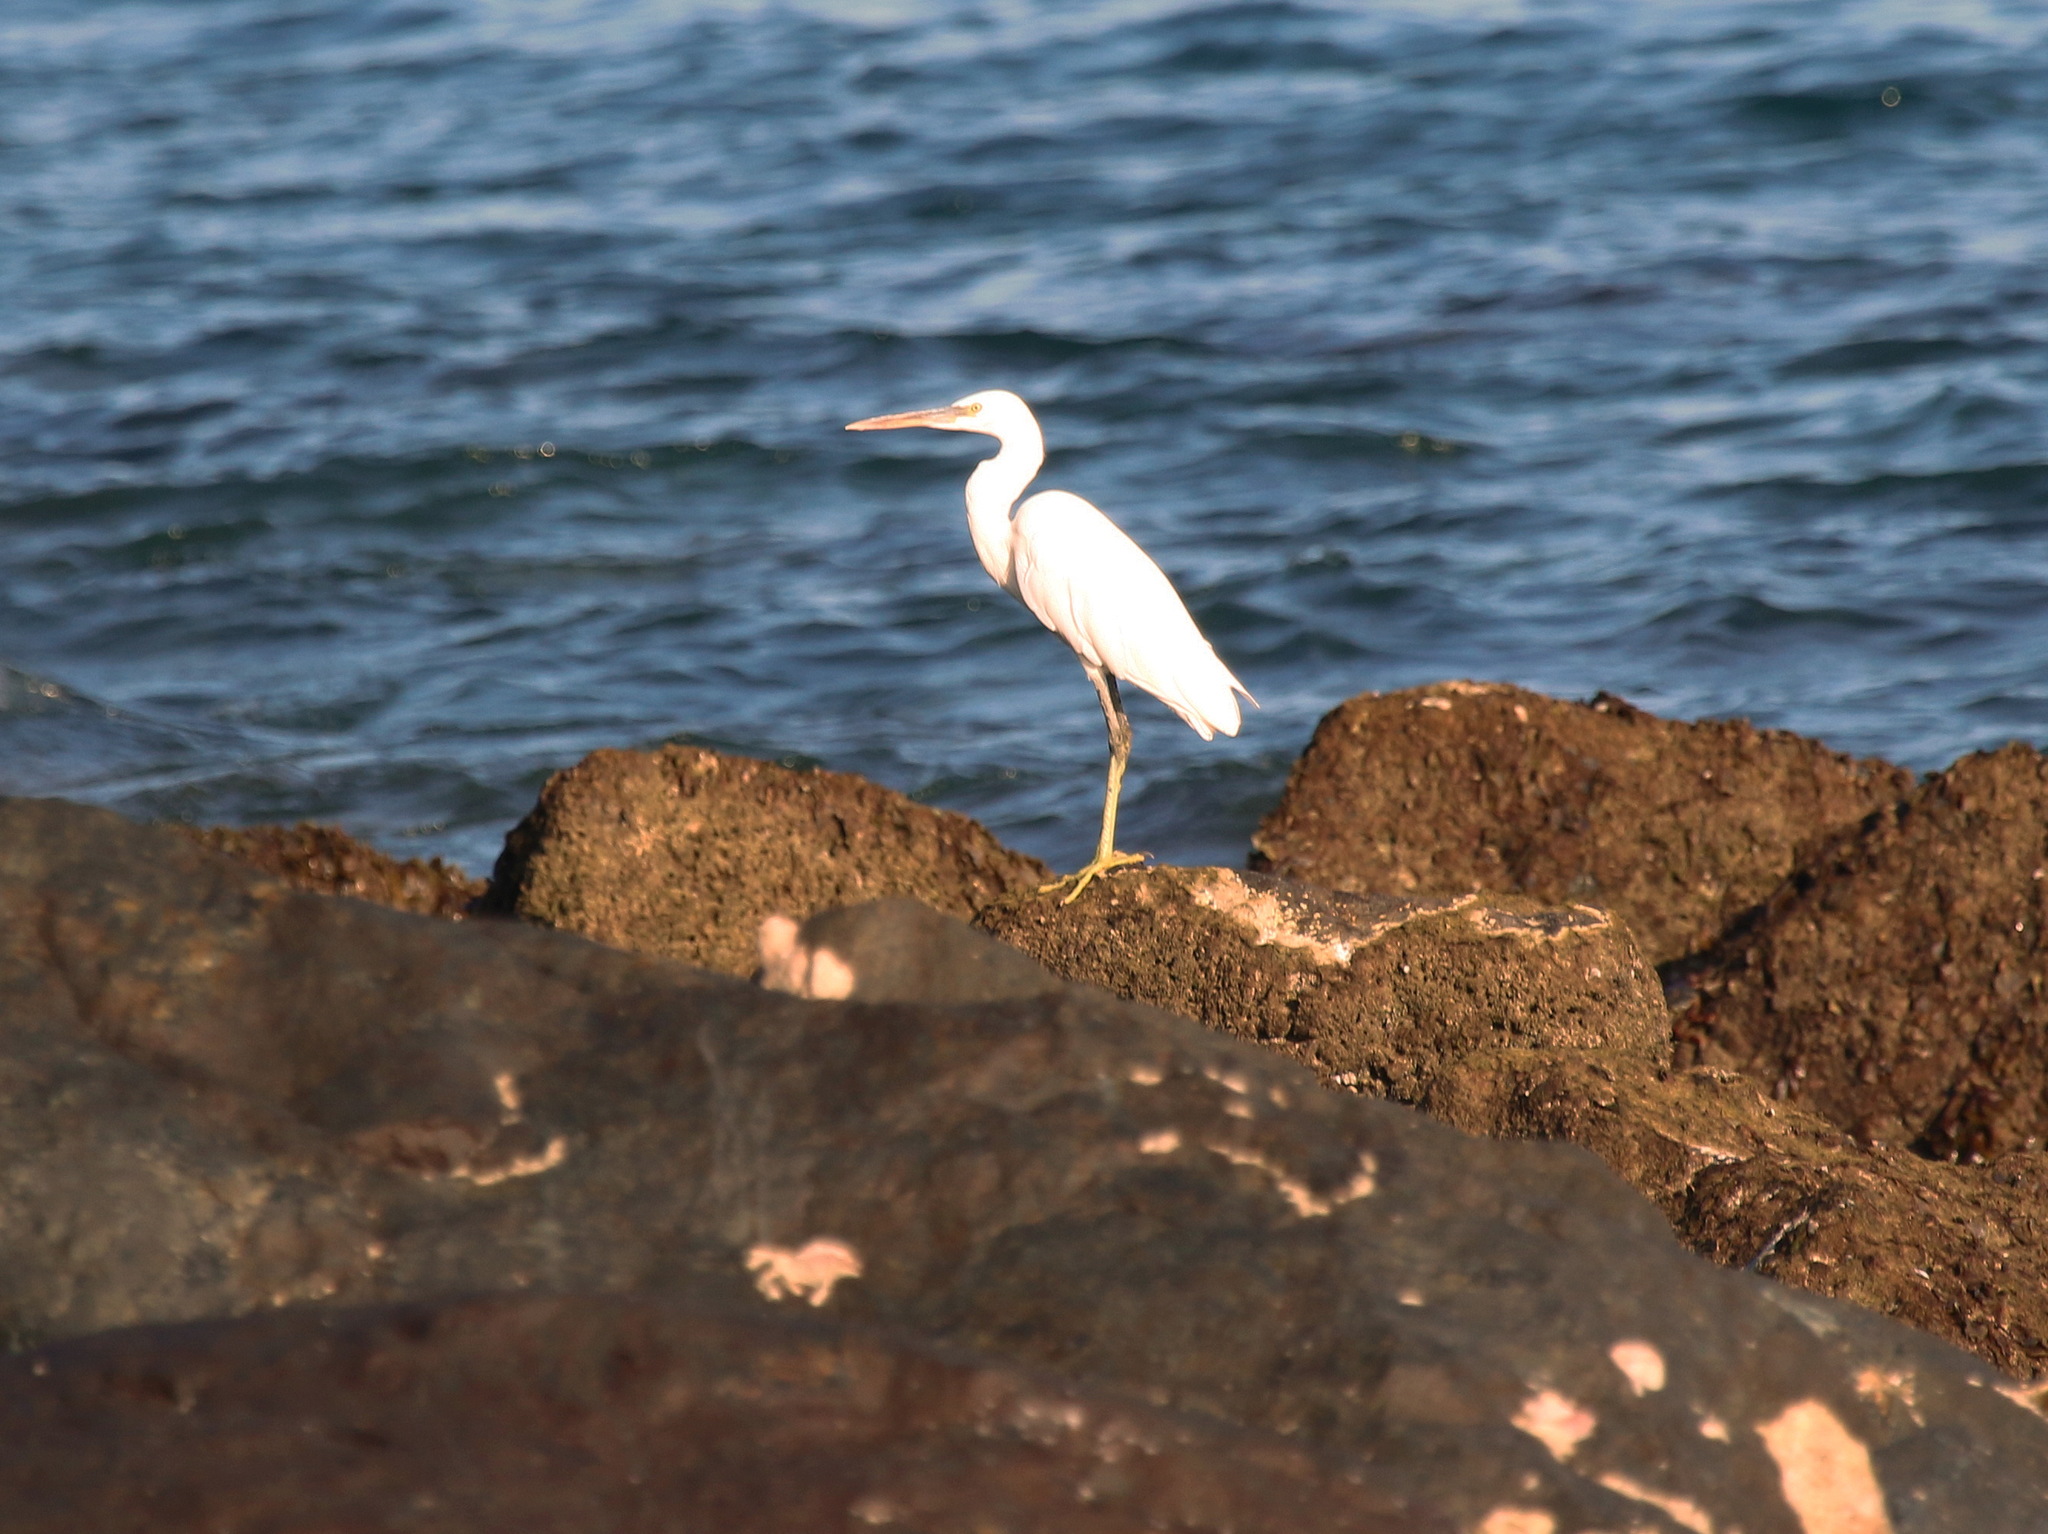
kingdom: Animalia
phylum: Chordata
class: Aves
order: Pelecaniformes
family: Ardeidae
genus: Egretta
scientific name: Egretta gularis
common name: Western reef-heron
